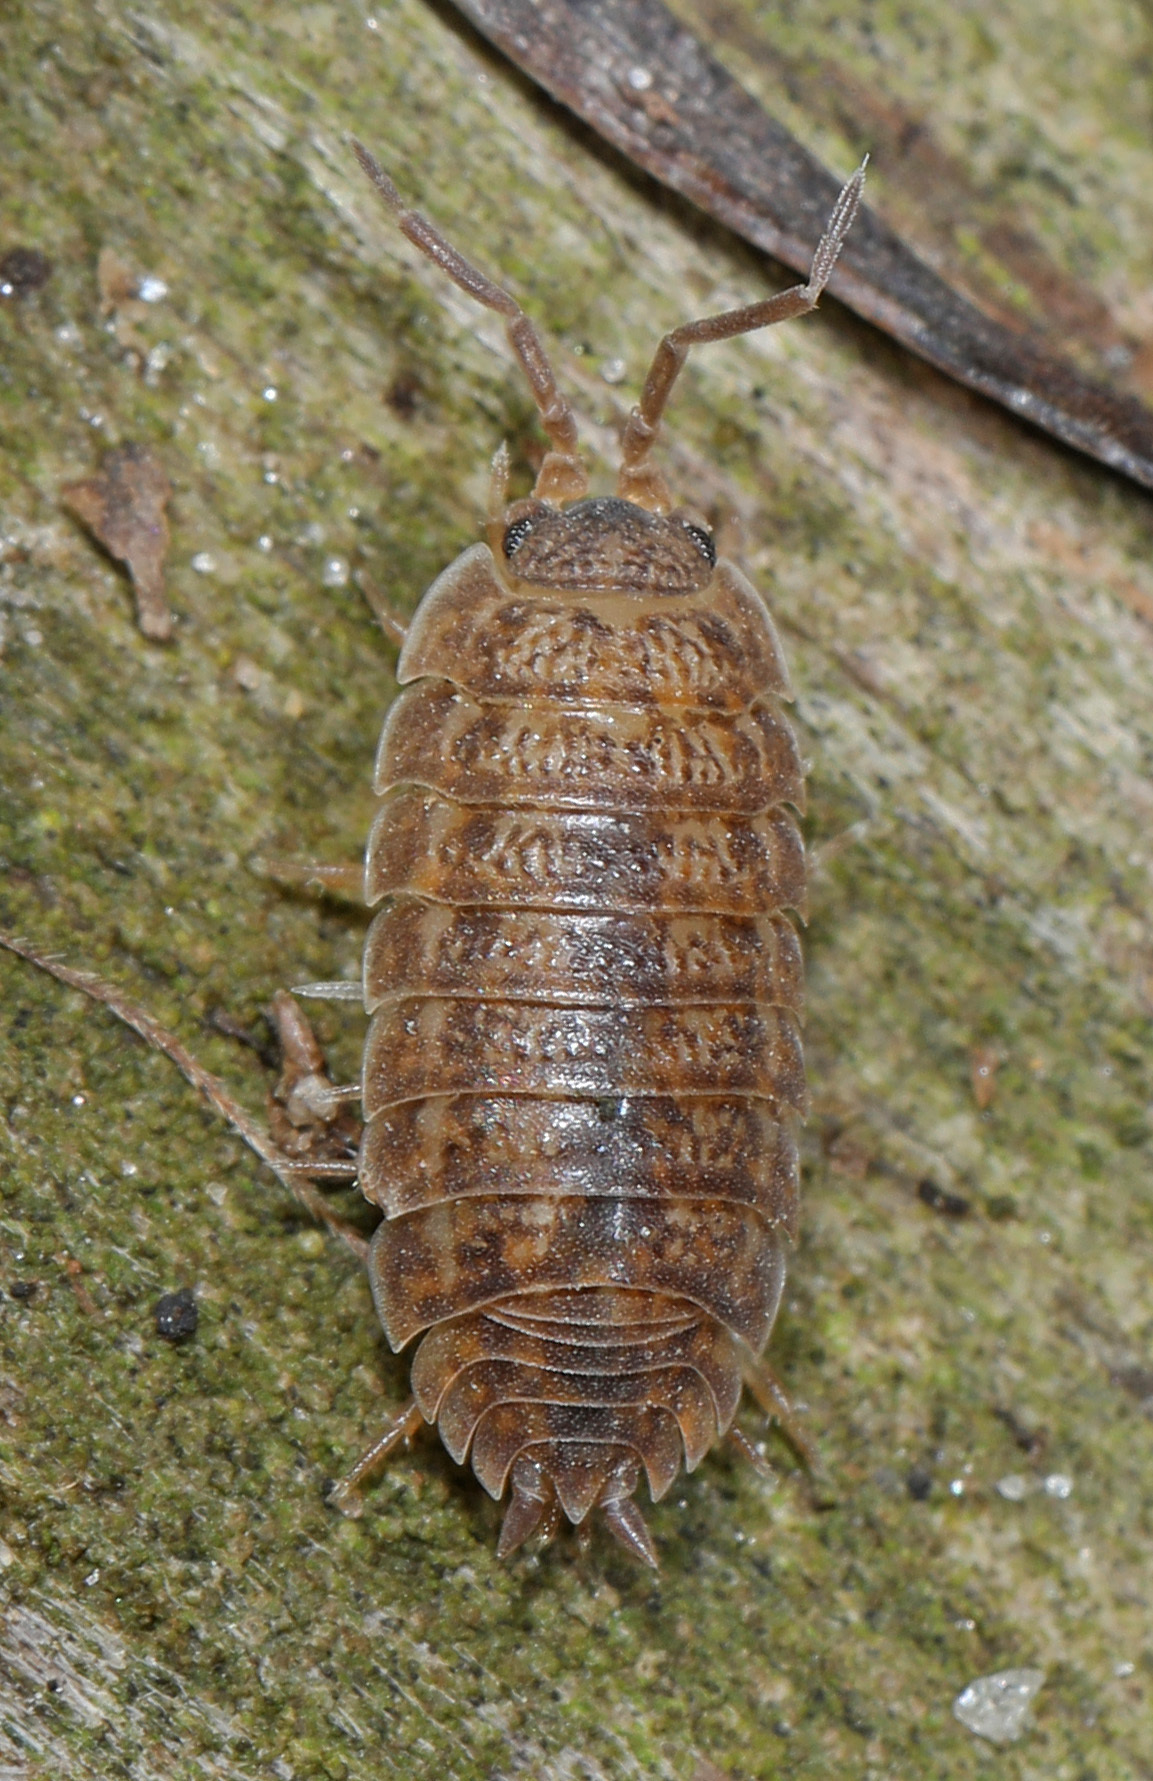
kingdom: Animalia
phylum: Arthropoda
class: Malacostraca
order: Isopoda
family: Trachelipodidae
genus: Trachelipus
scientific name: Trachelipus rathkii
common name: Isopod
